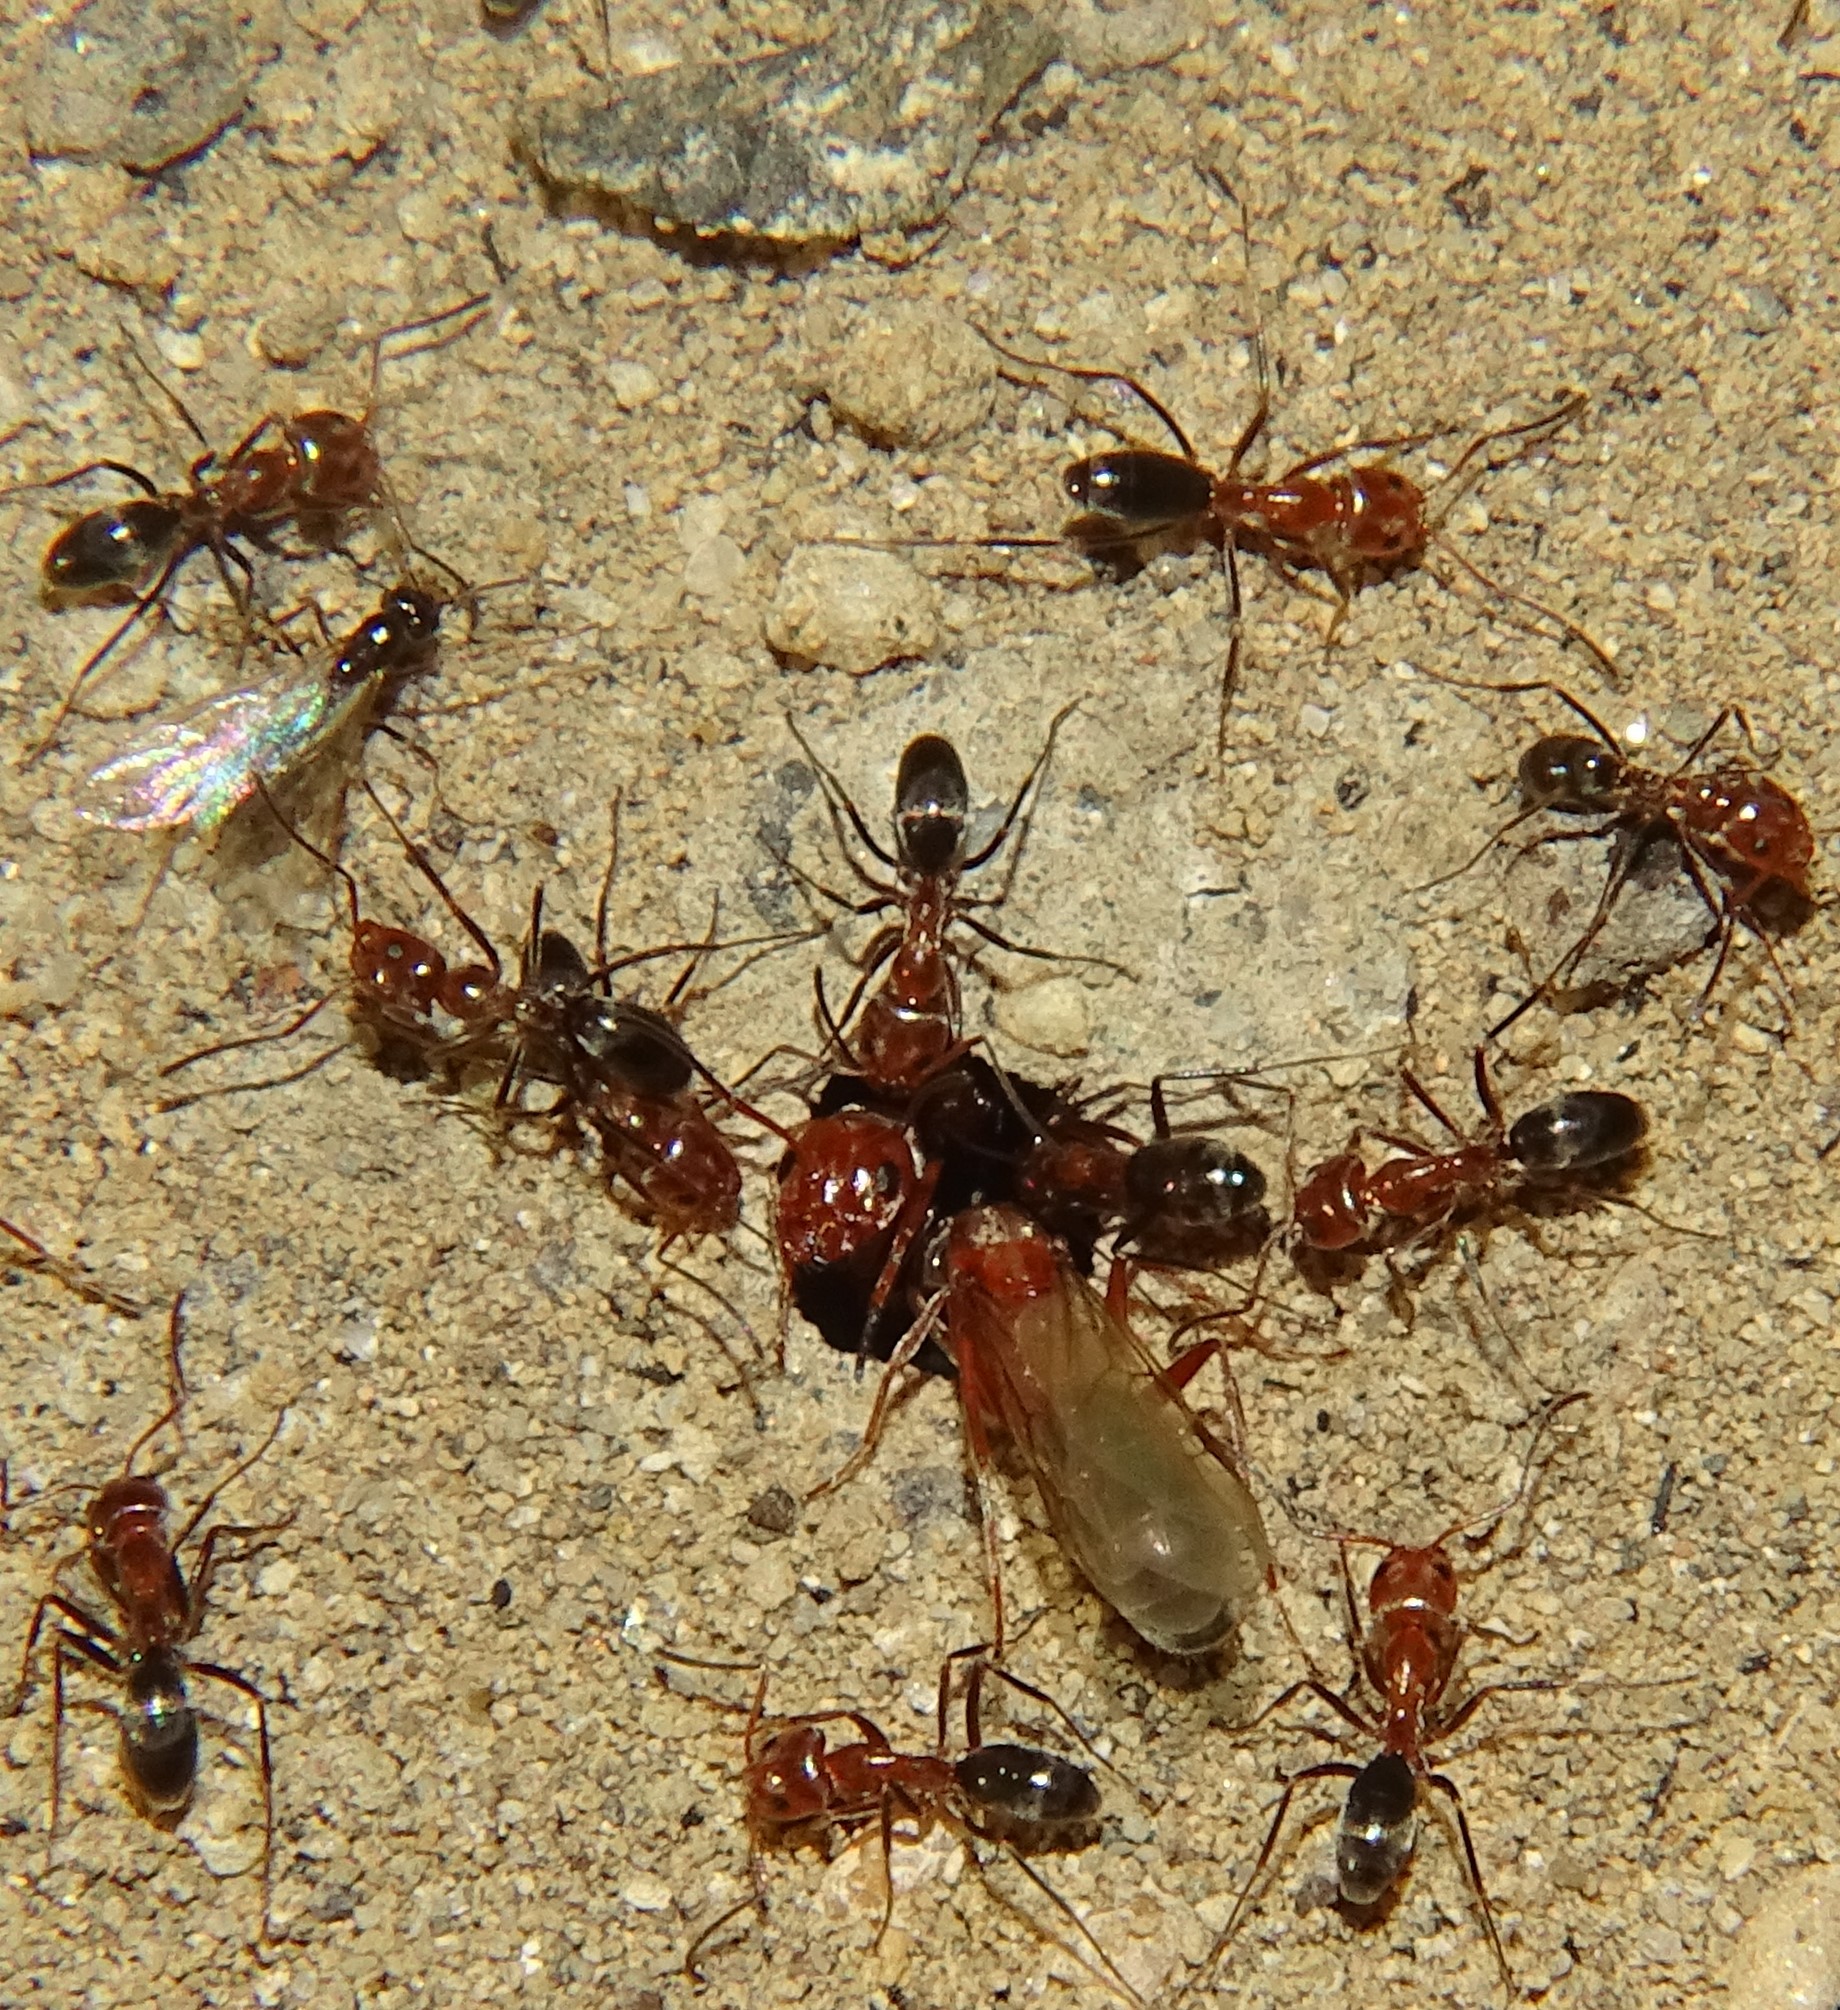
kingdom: Animalia
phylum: Arthropoda
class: Insecta
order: Hymenoptera
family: Formicidae
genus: Dorymyrmex
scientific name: Dorymyrmex bicolor
